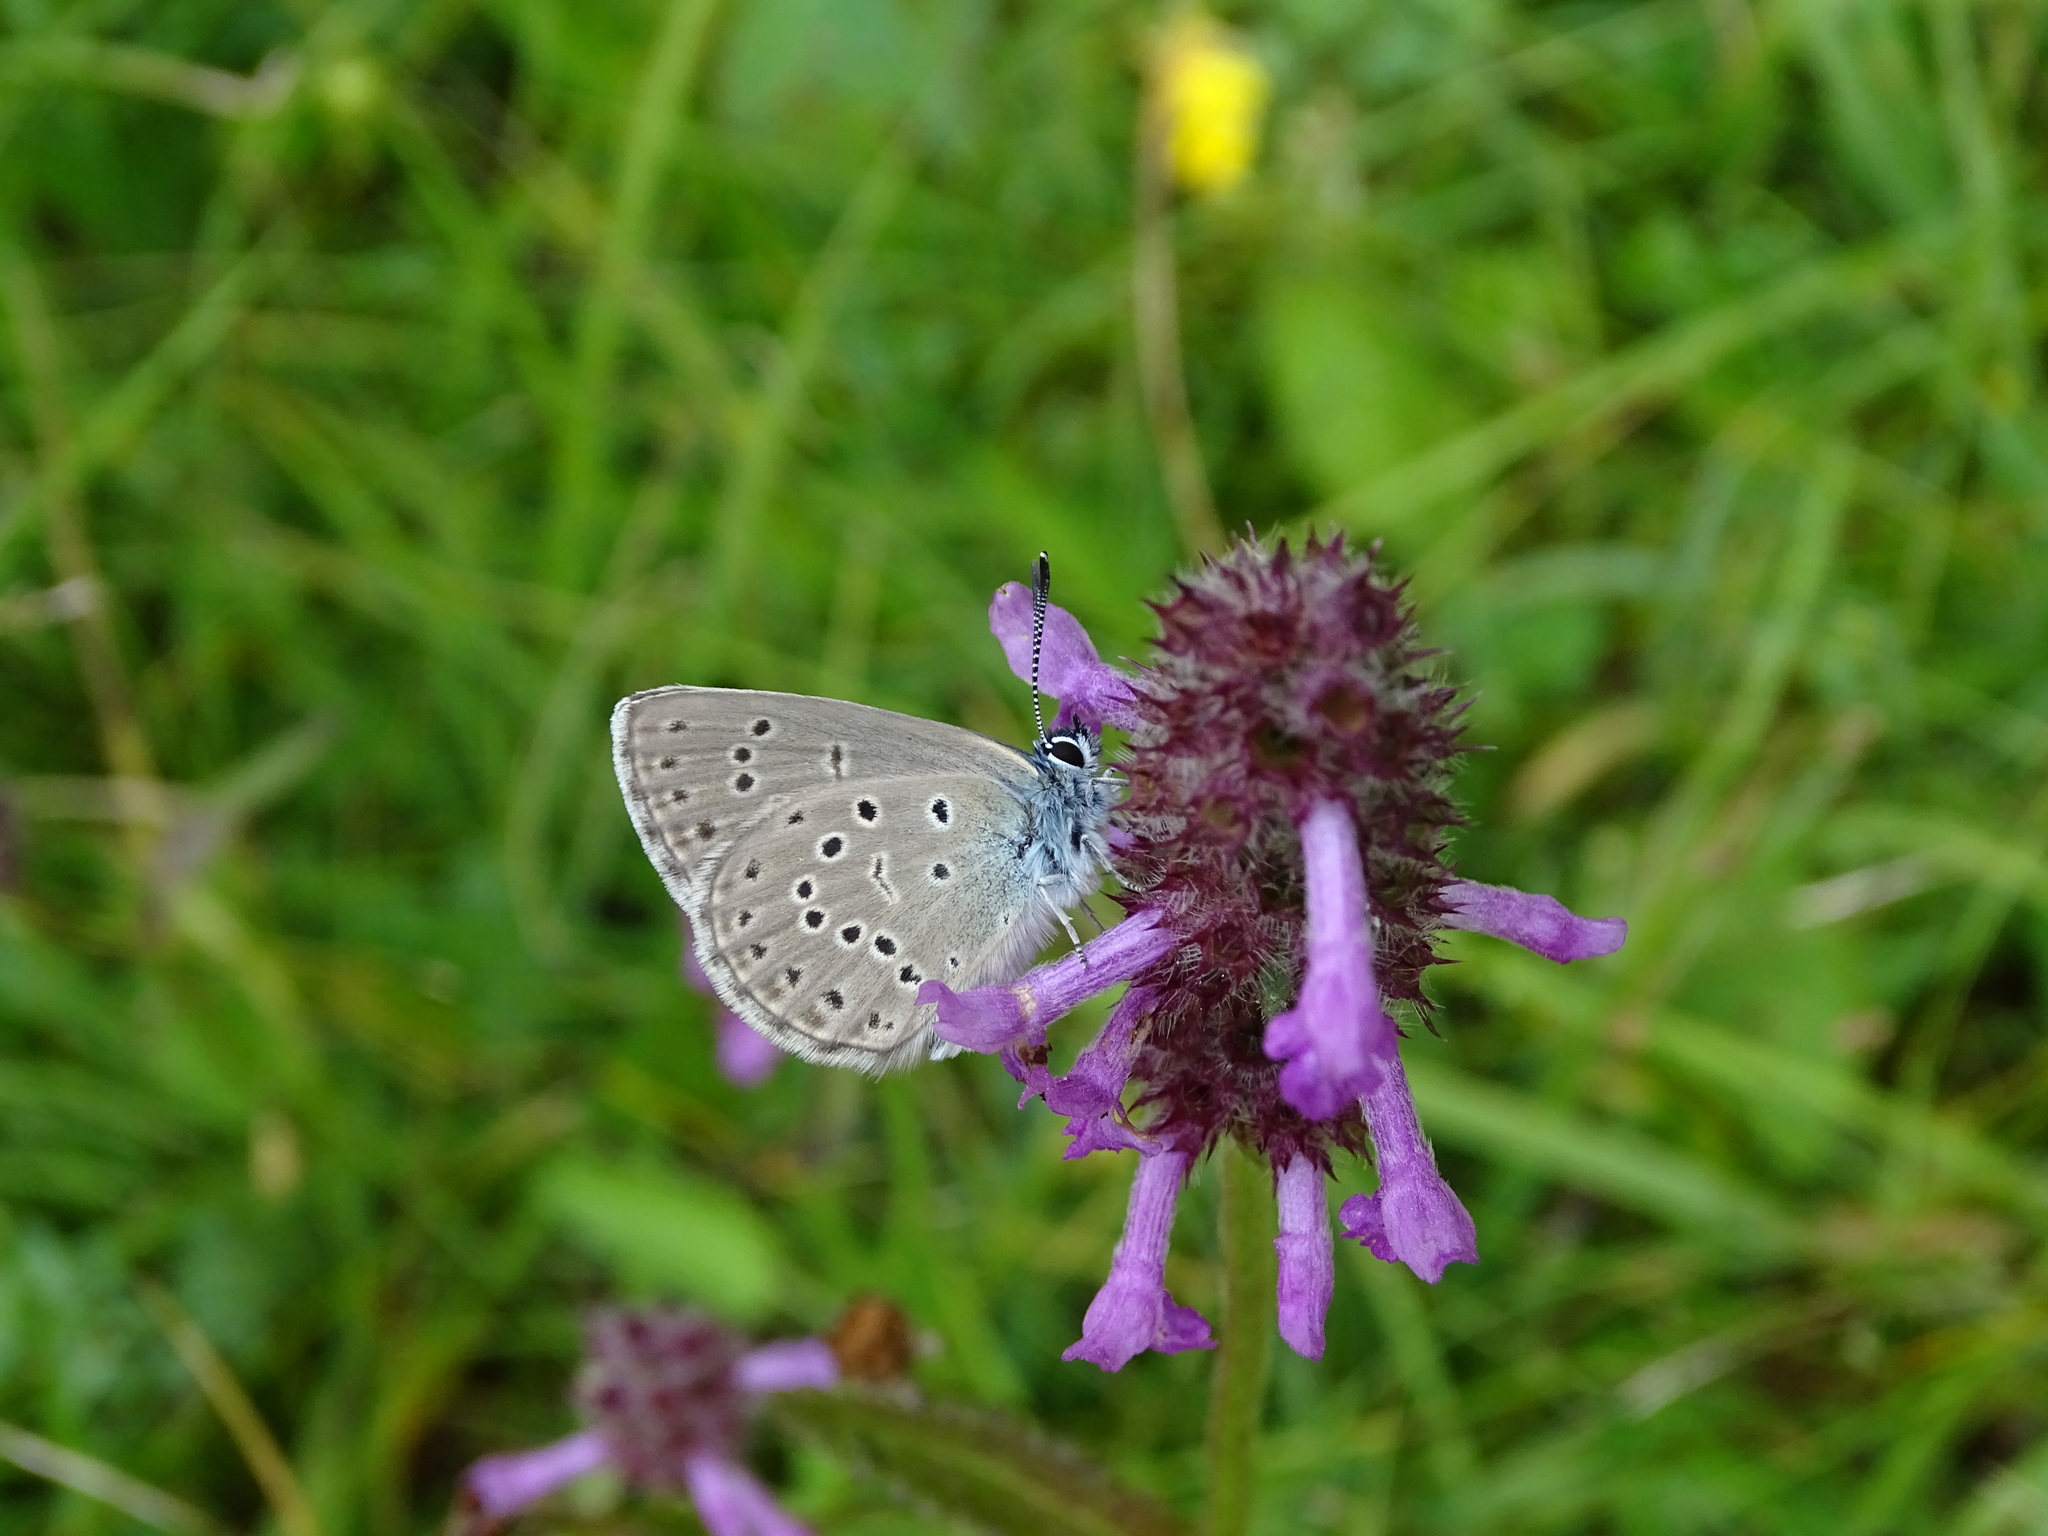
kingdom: Animalia
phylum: Arthropoda
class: Insecta
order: Lepidoptera
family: Lycaenidae
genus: Maculinea
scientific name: Maculinea alcon
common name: Alcon blue
